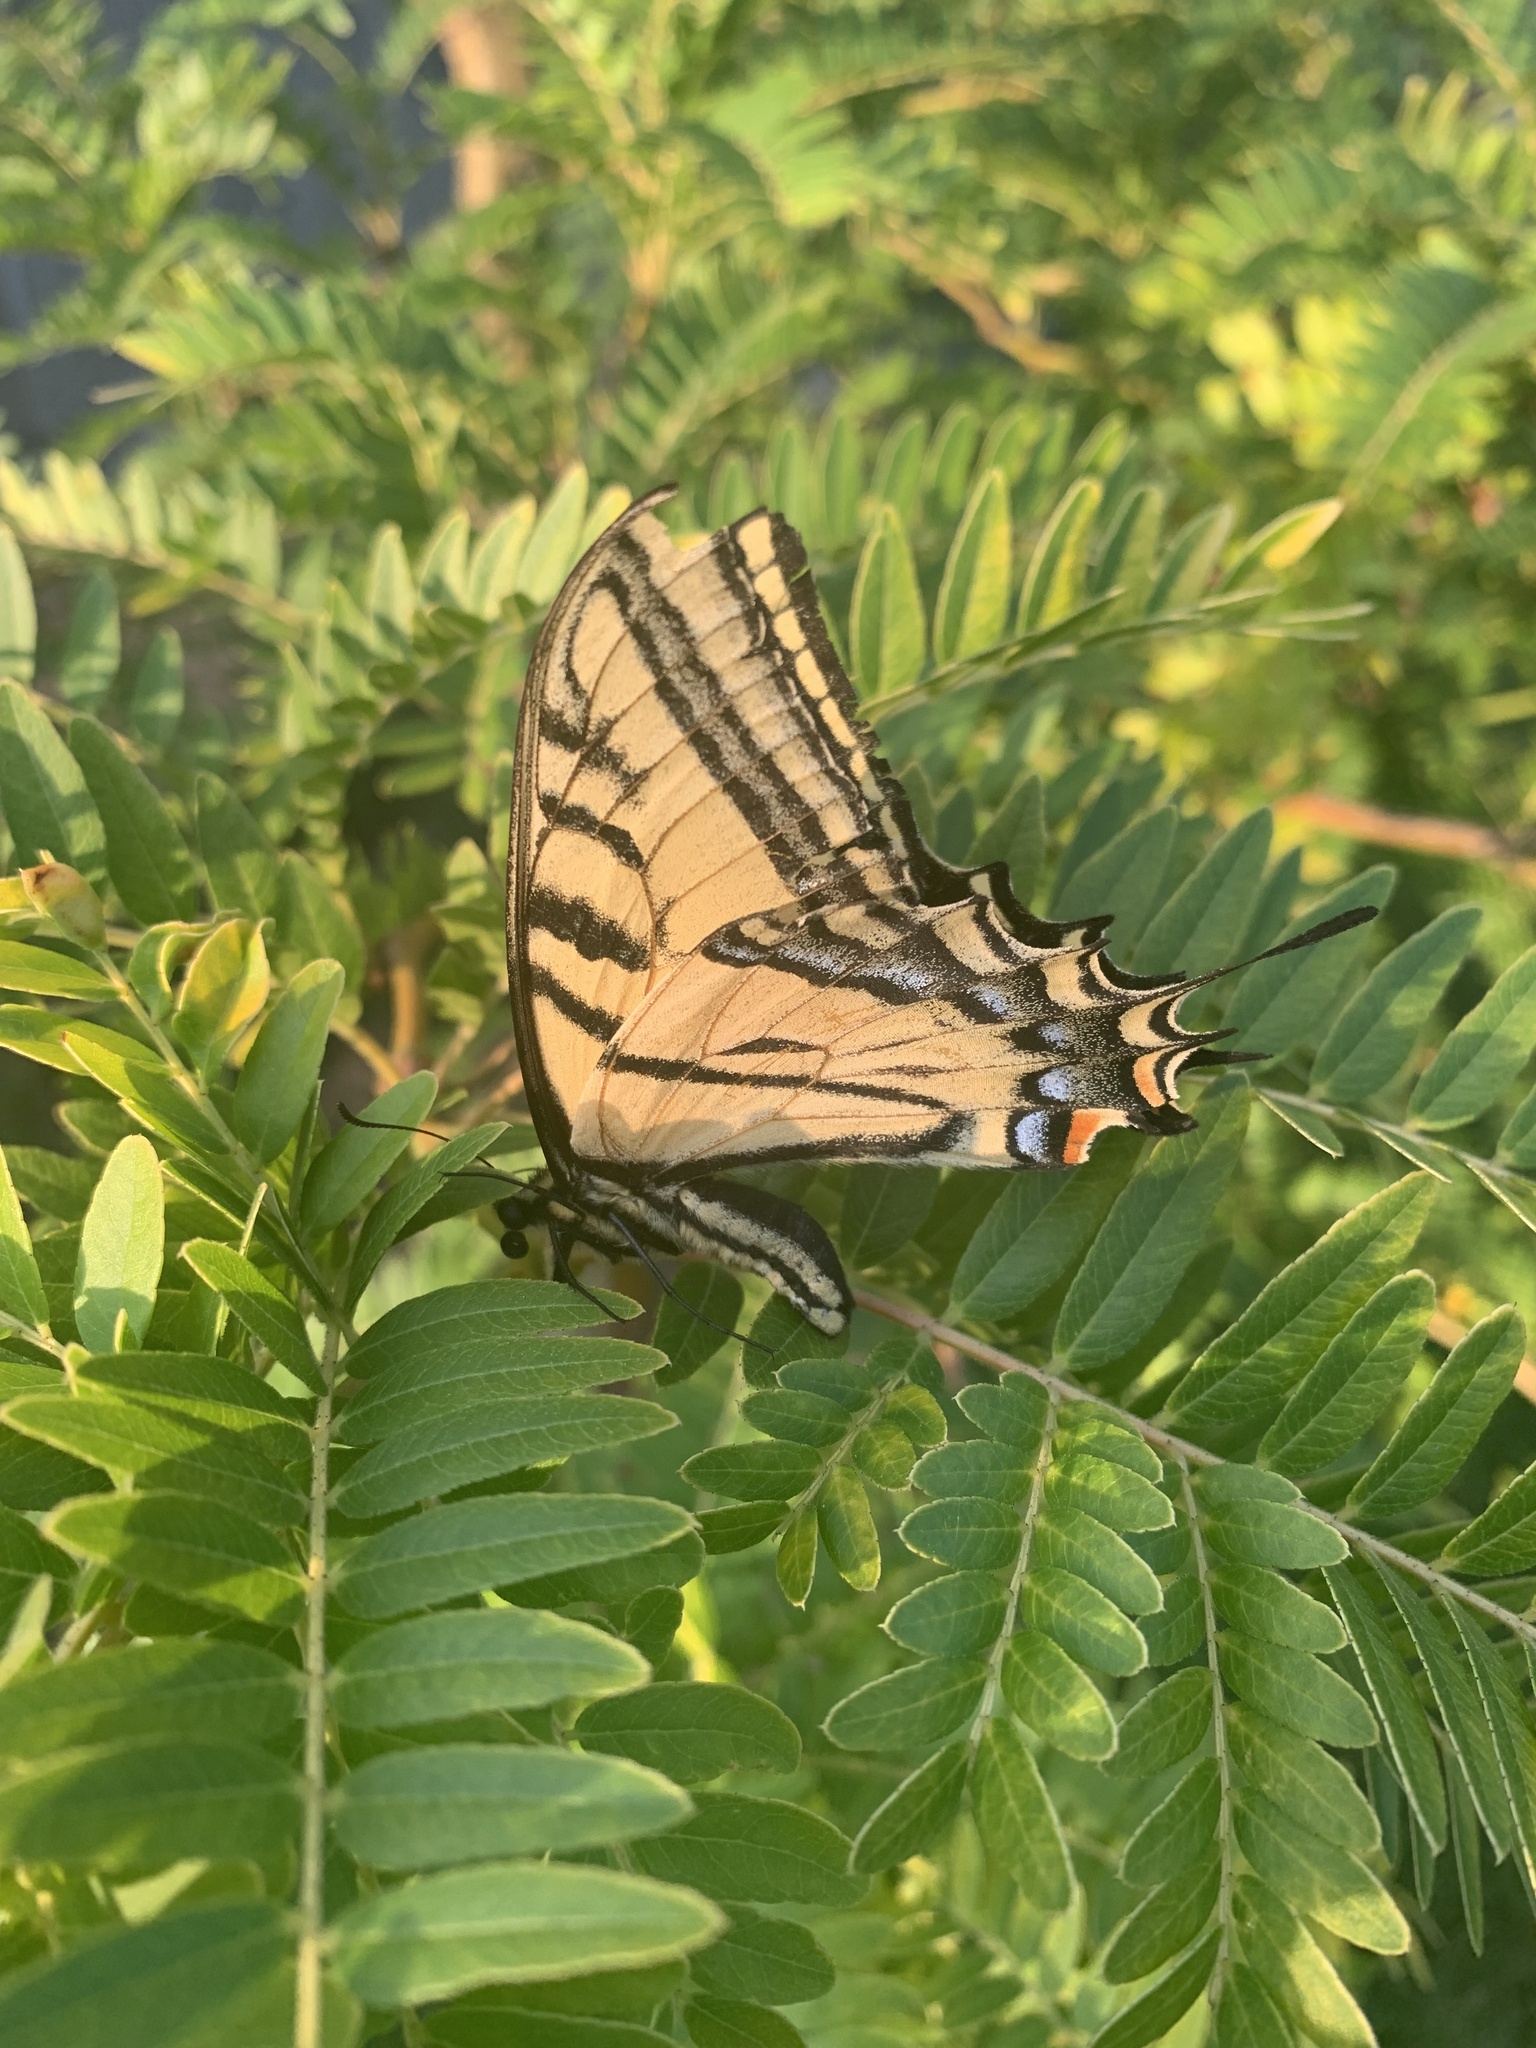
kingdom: Animalia
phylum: Arthropoda
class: Insecta
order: Lepidoptera
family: Papilionidae
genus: Papilio
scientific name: Papilio multicaudata
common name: Two-tailed tiger swallowtail
